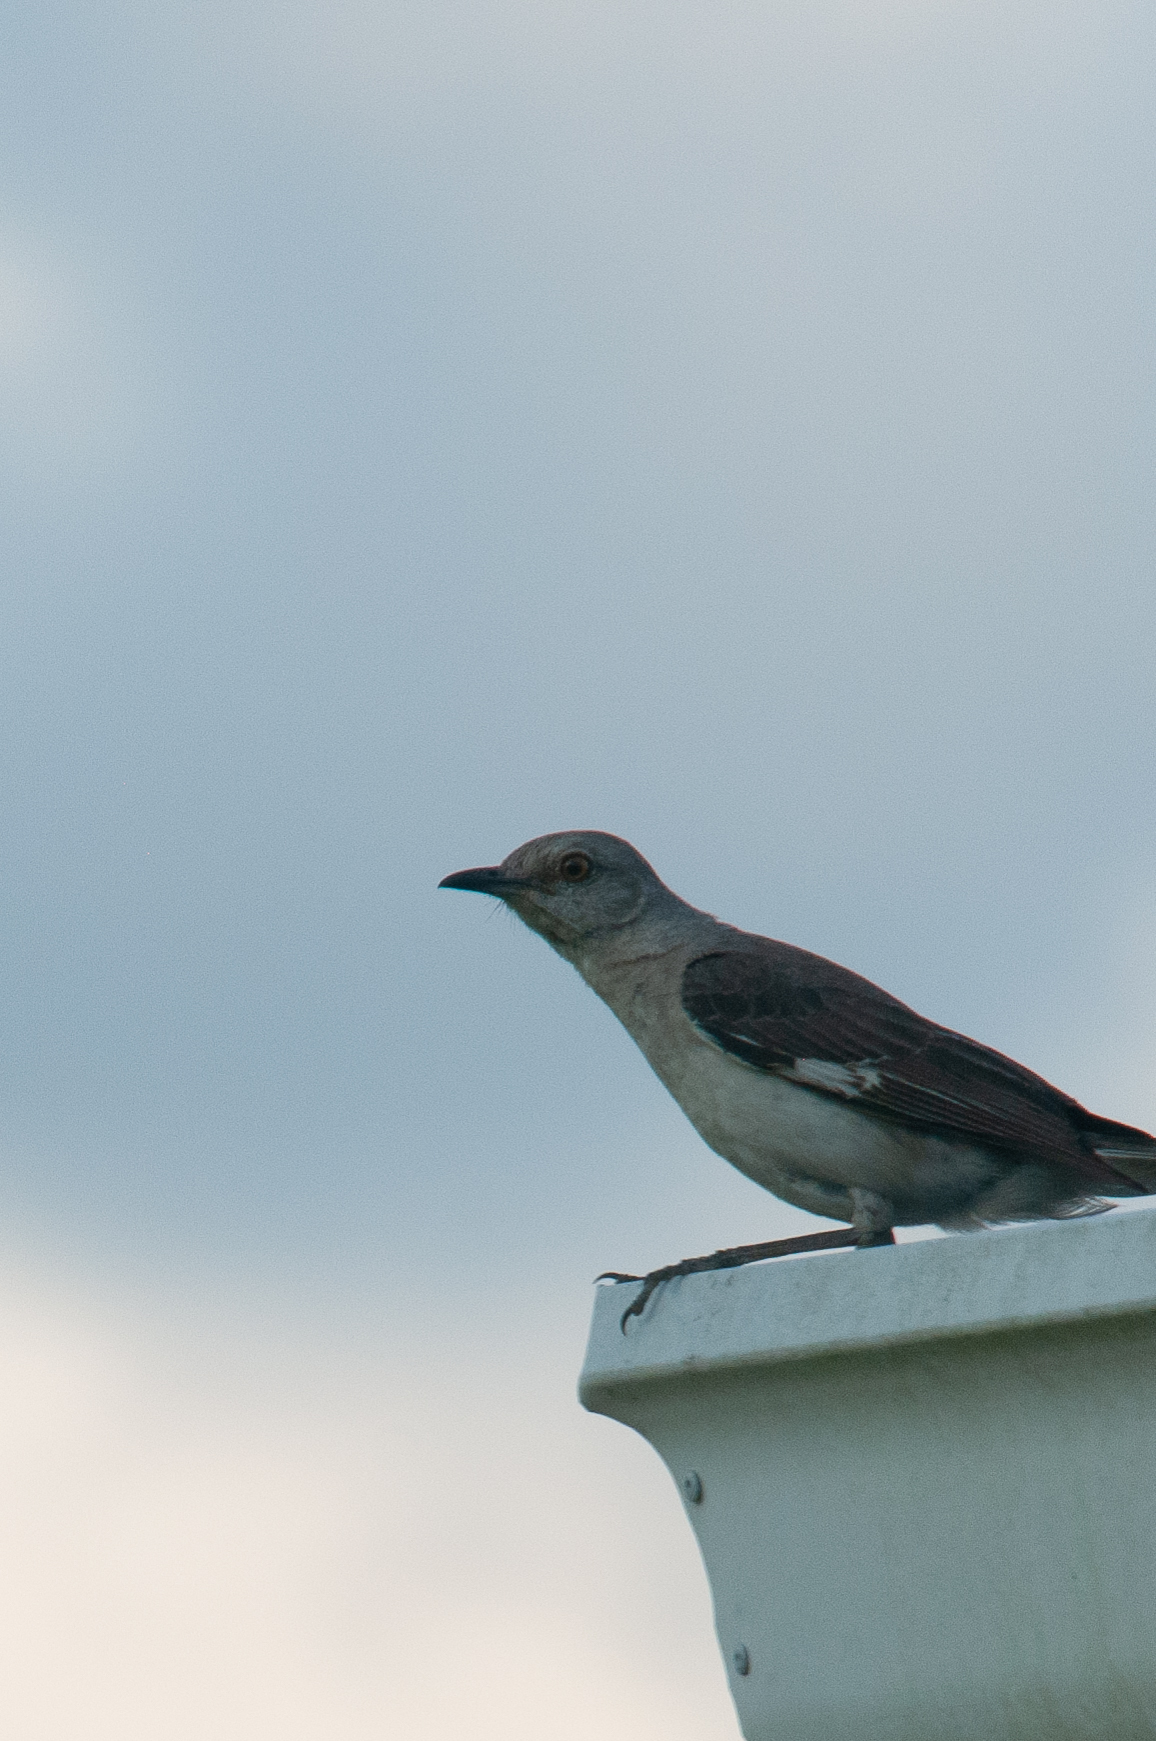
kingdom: Animalia
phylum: Chordata
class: Aves
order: Passeriformes
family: Mimidae
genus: Mimus
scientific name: Mimus polyglottos
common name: Northern mockingbird
